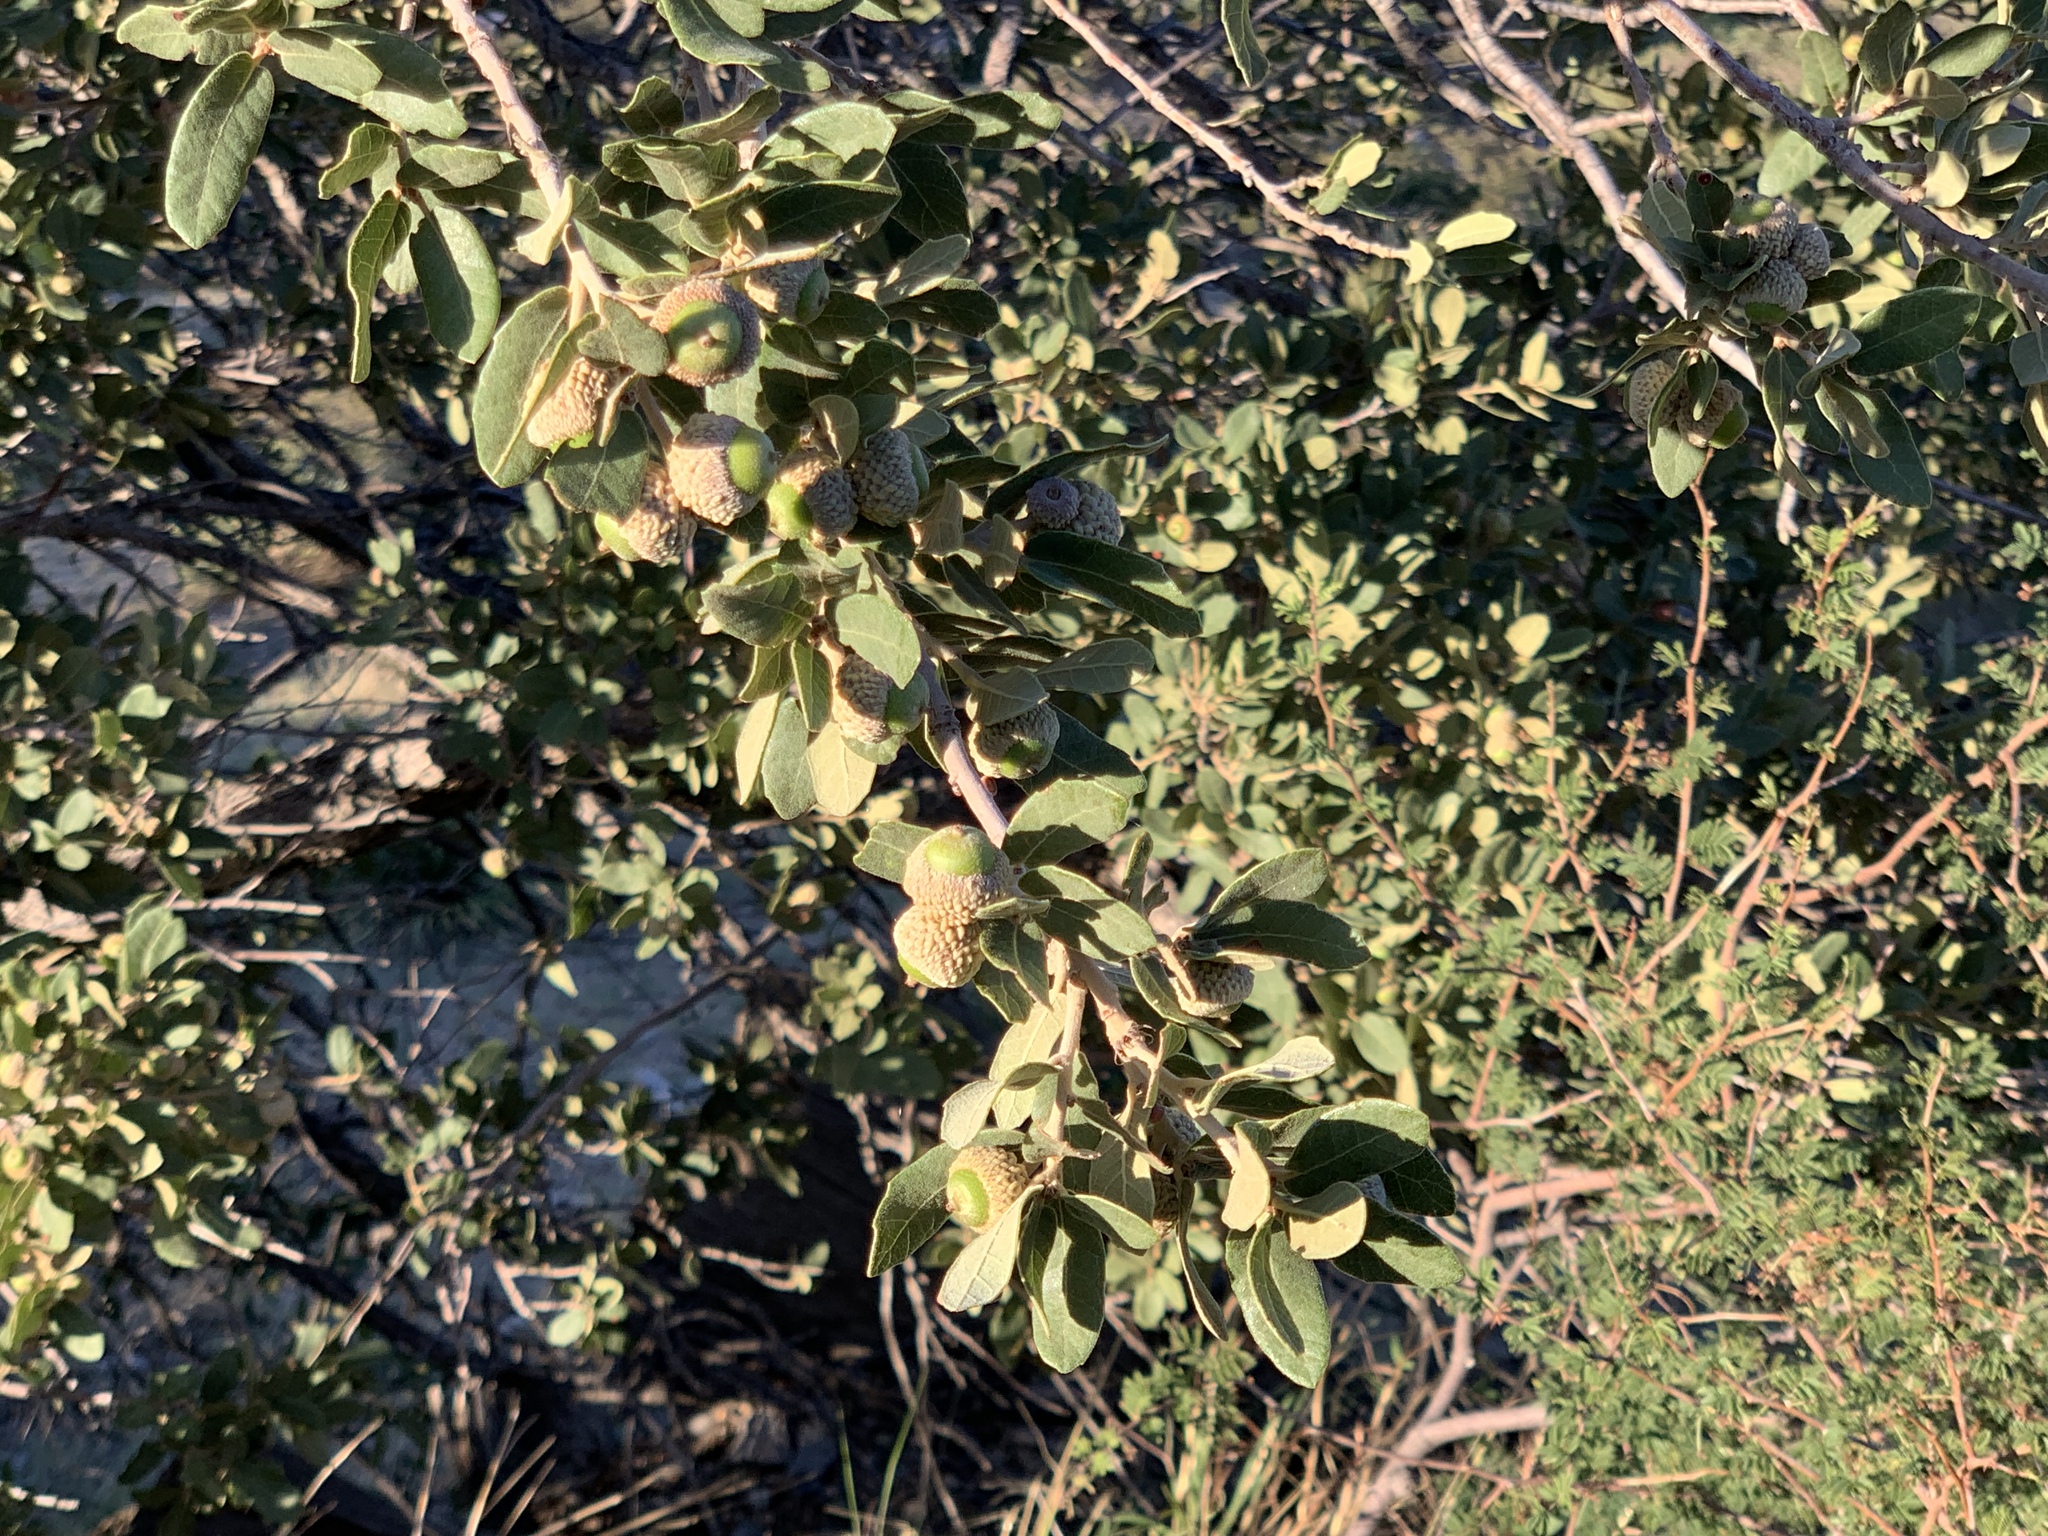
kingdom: Plantae
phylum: Tracheophyta
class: Magnoliopsida
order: Fagales
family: Fagaceae
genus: Quercus
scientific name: Quercus grisea
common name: Gray oak
